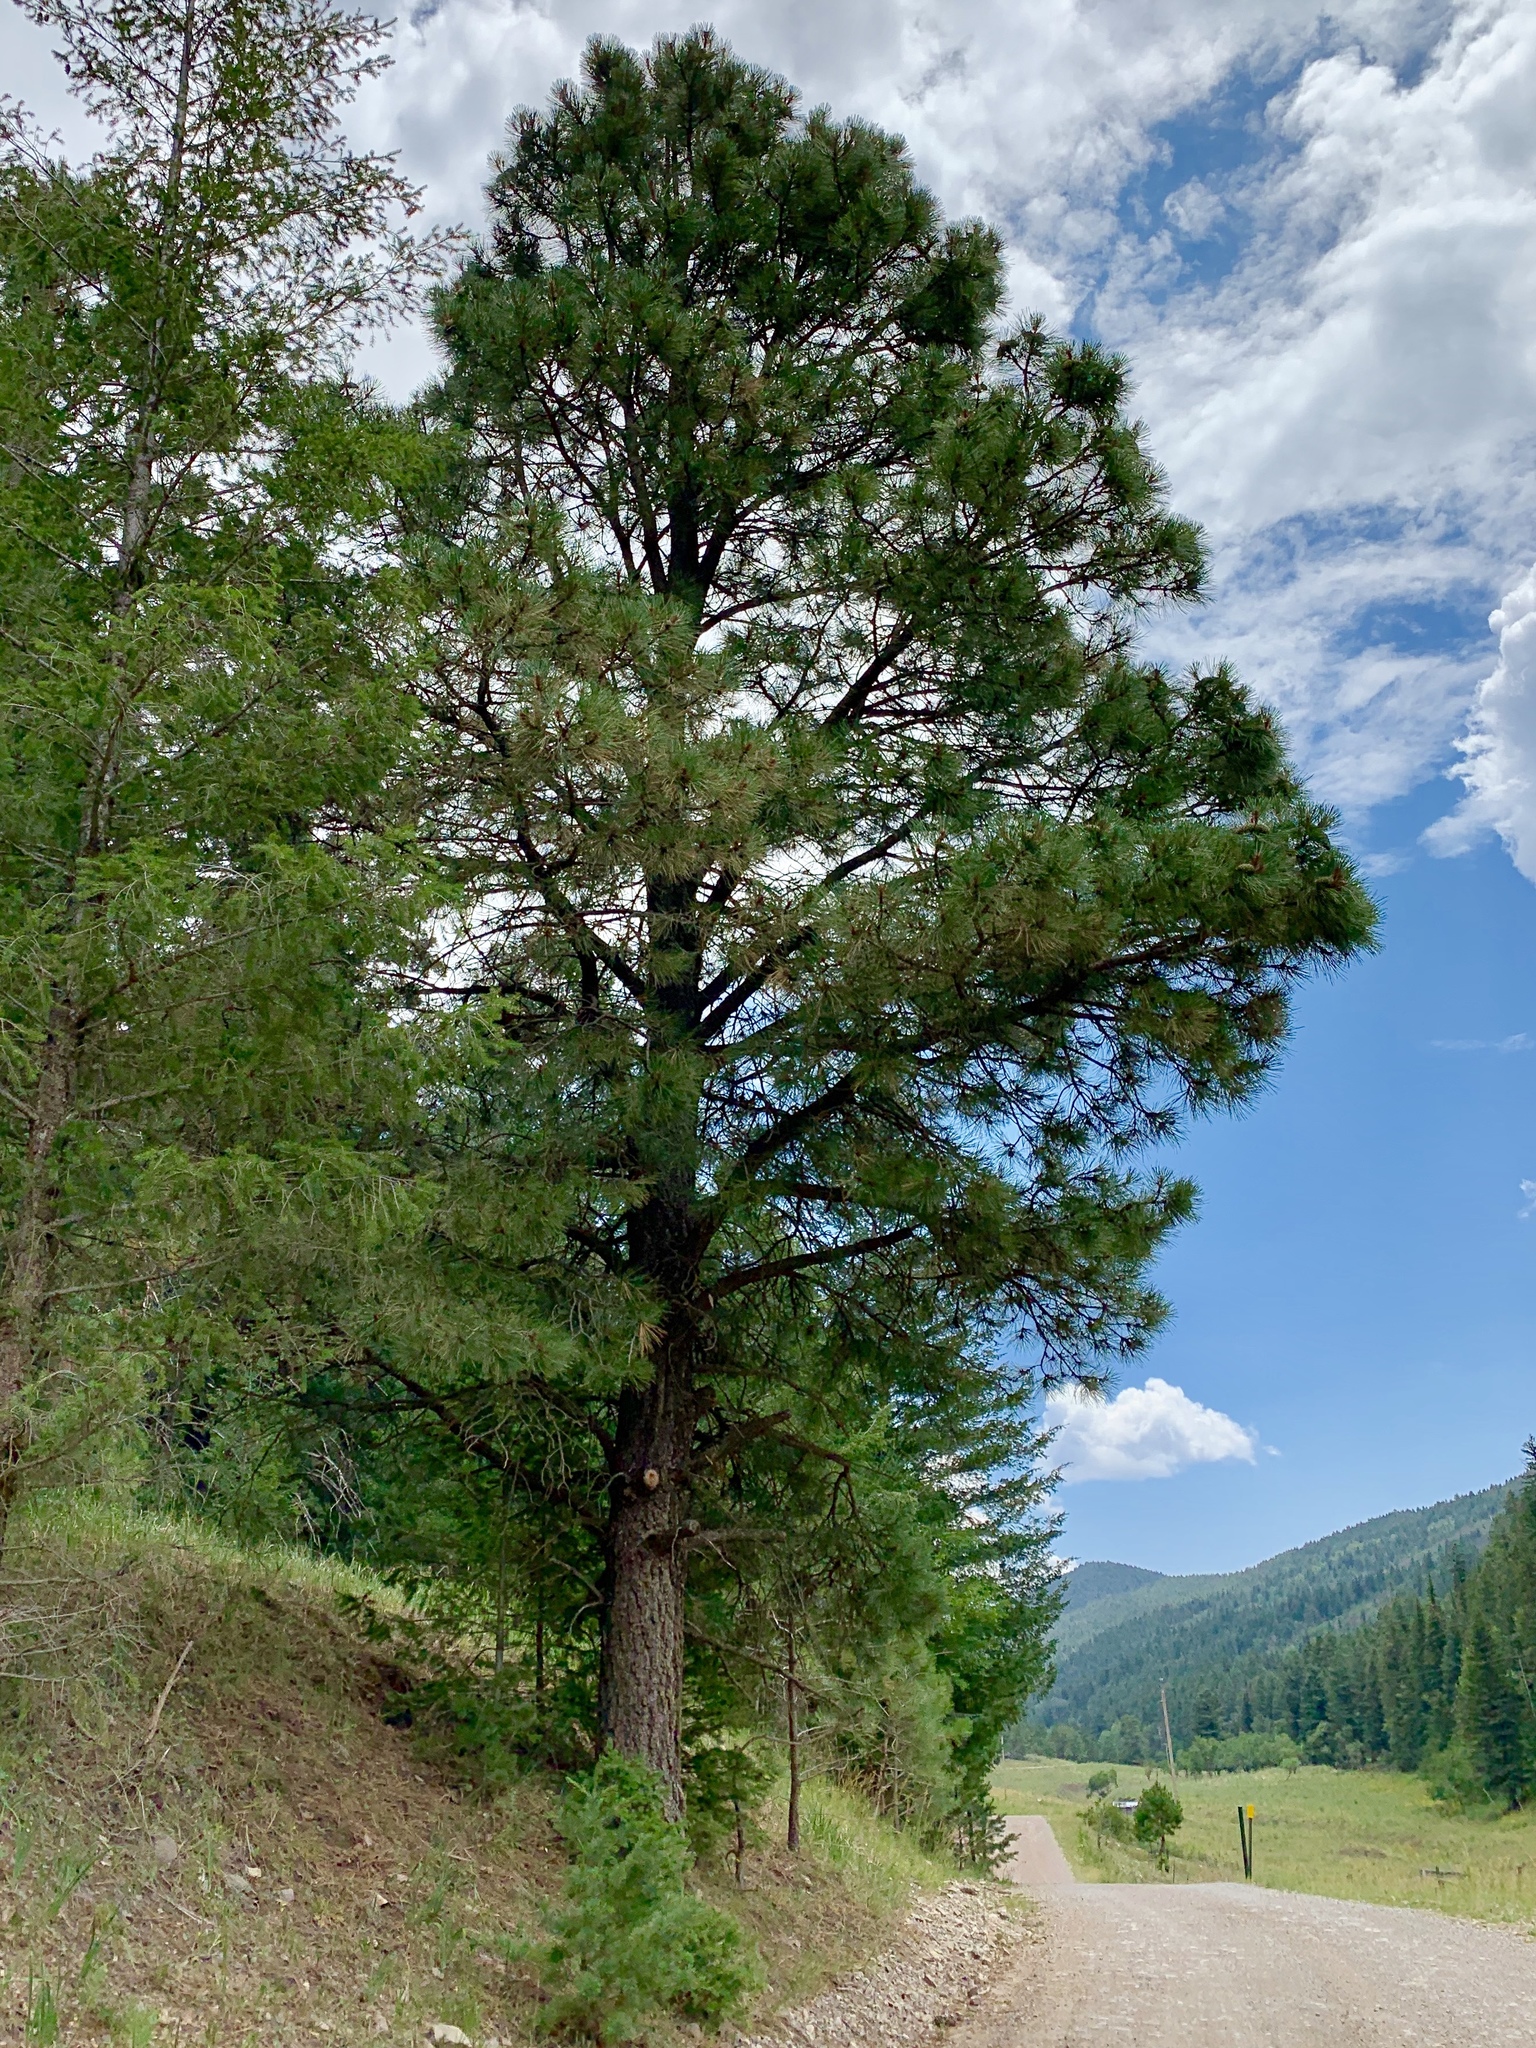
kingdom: Plantae
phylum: Tracheophyta
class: Pinopsida
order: Pinales
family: Pinaceae
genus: Pinus
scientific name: Pinus ponderosa
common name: Western yellow-pine
